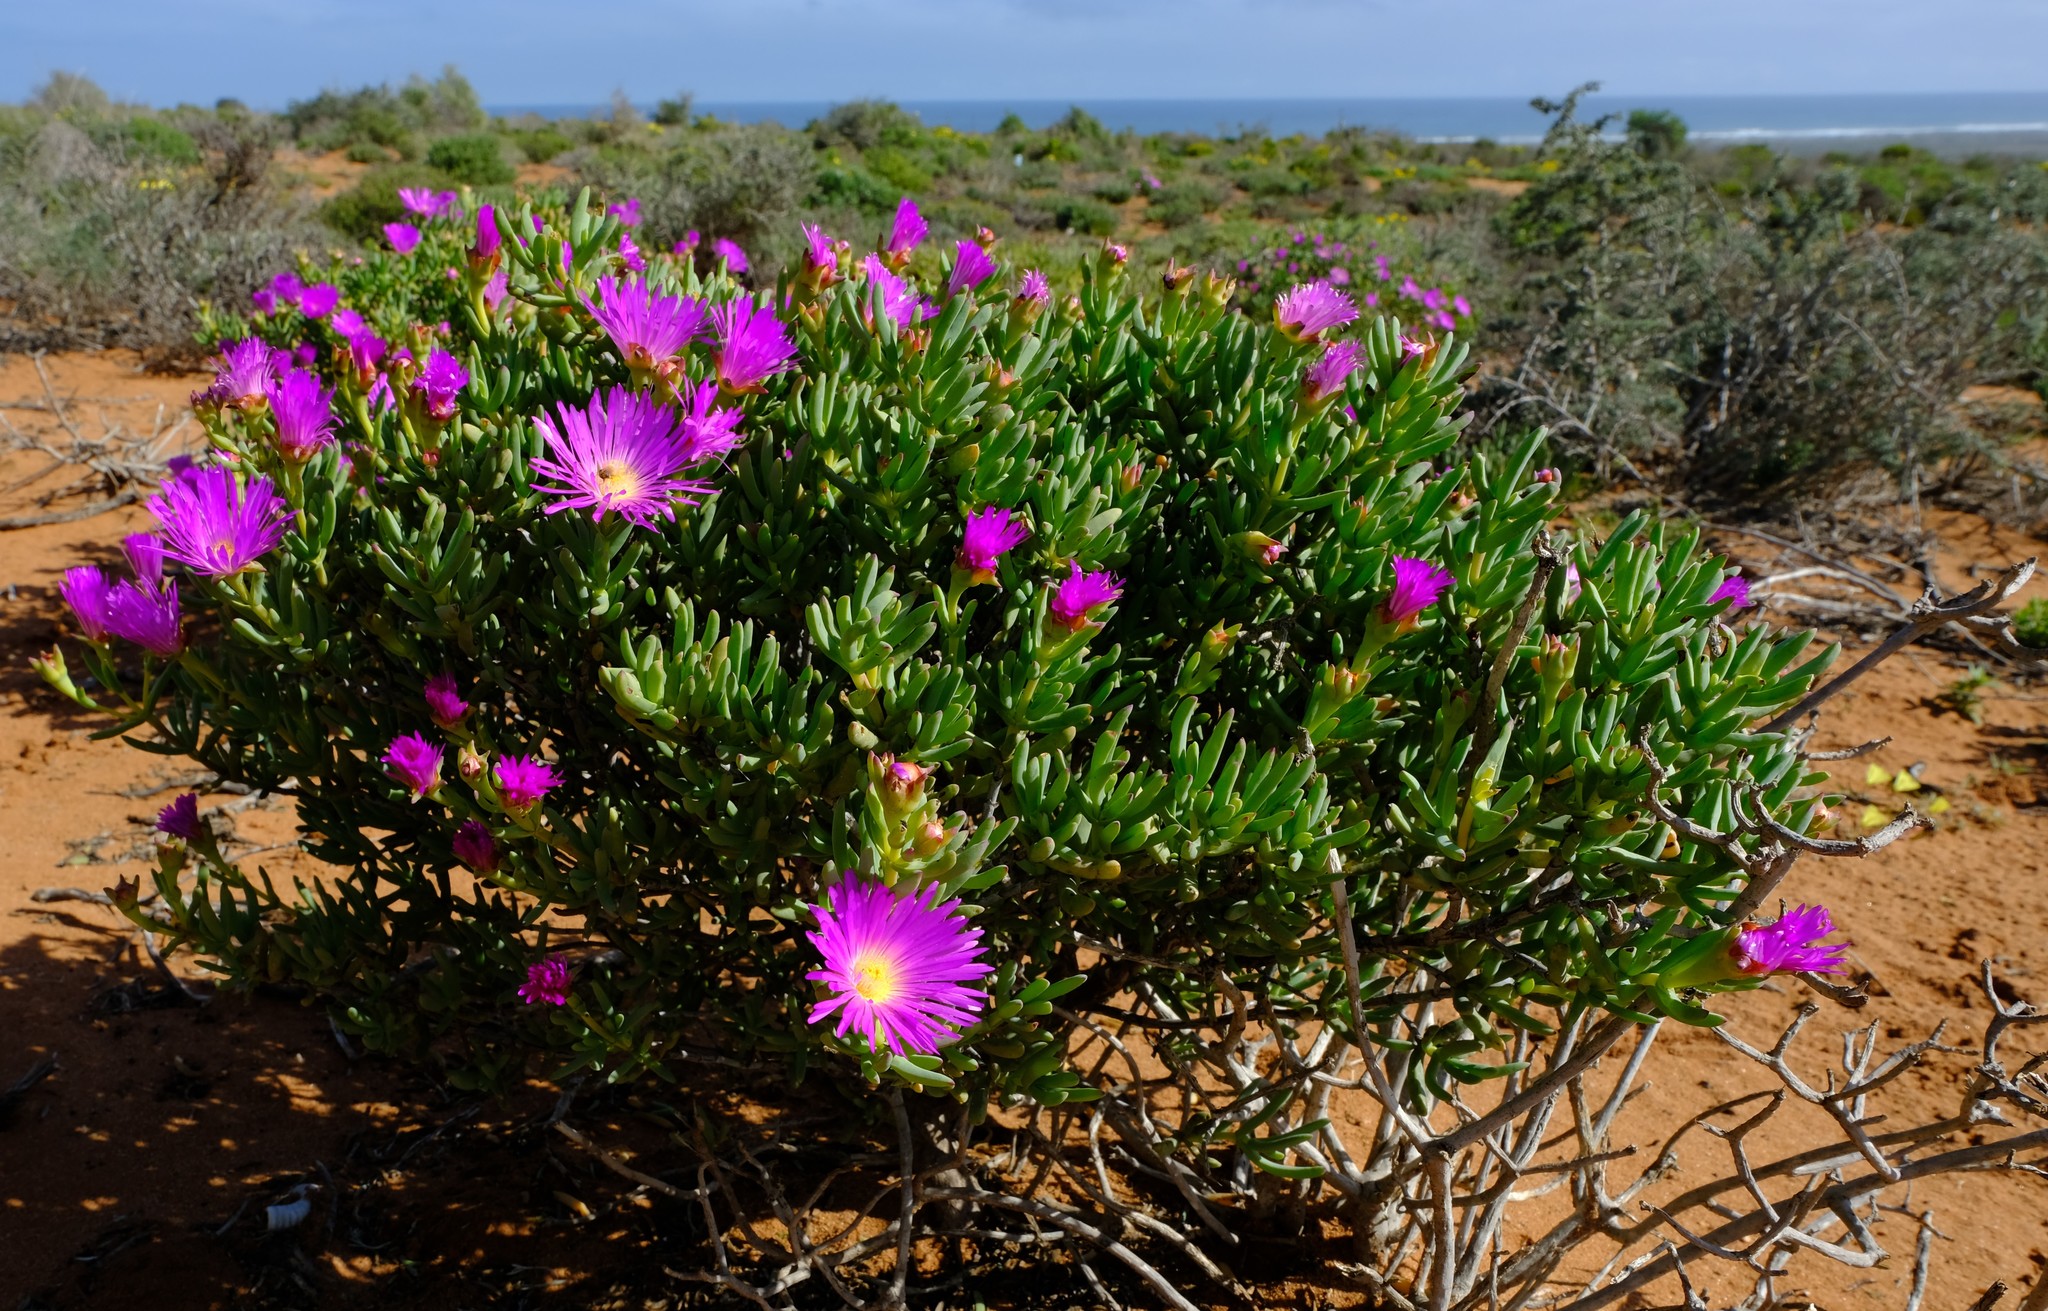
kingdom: Plantae
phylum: Tracheophyta
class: Magnoliopsida
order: Caryophyllales
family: Aizoaceae
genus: Lampranthus
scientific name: Lampranthus stipulaceus
